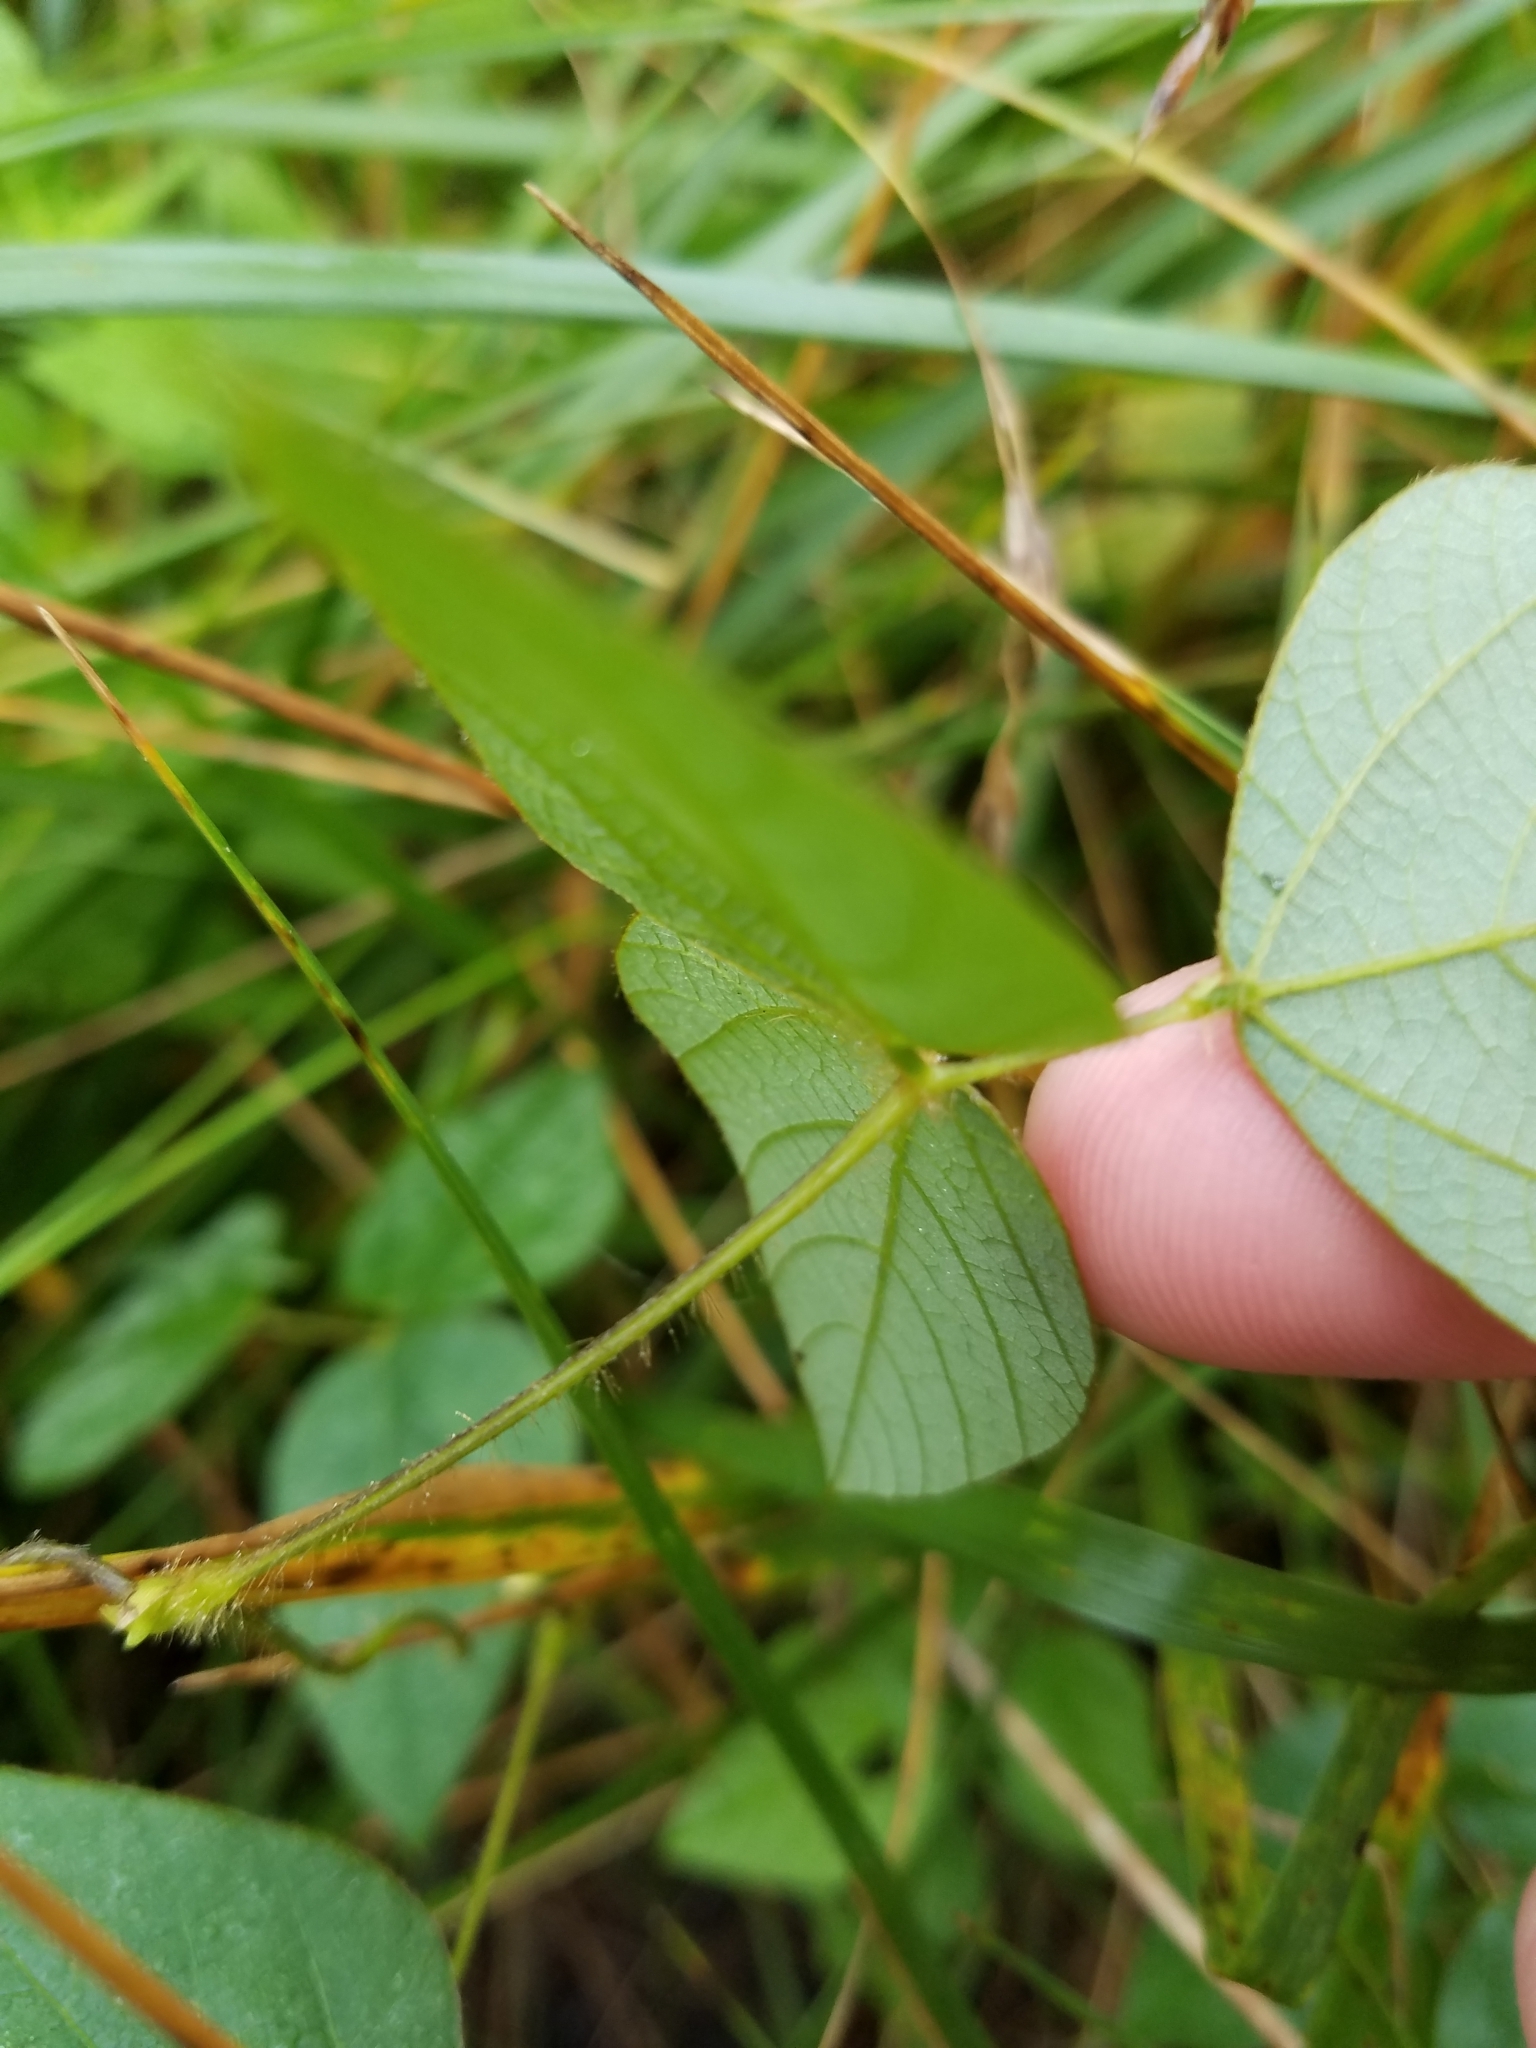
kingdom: Plantae
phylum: Tracheophyta
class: Magnoliopsida
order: Fabales
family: Fabaceae
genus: Amphicarpaea
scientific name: Amphicarpaea bracteata
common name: American hog peanut
